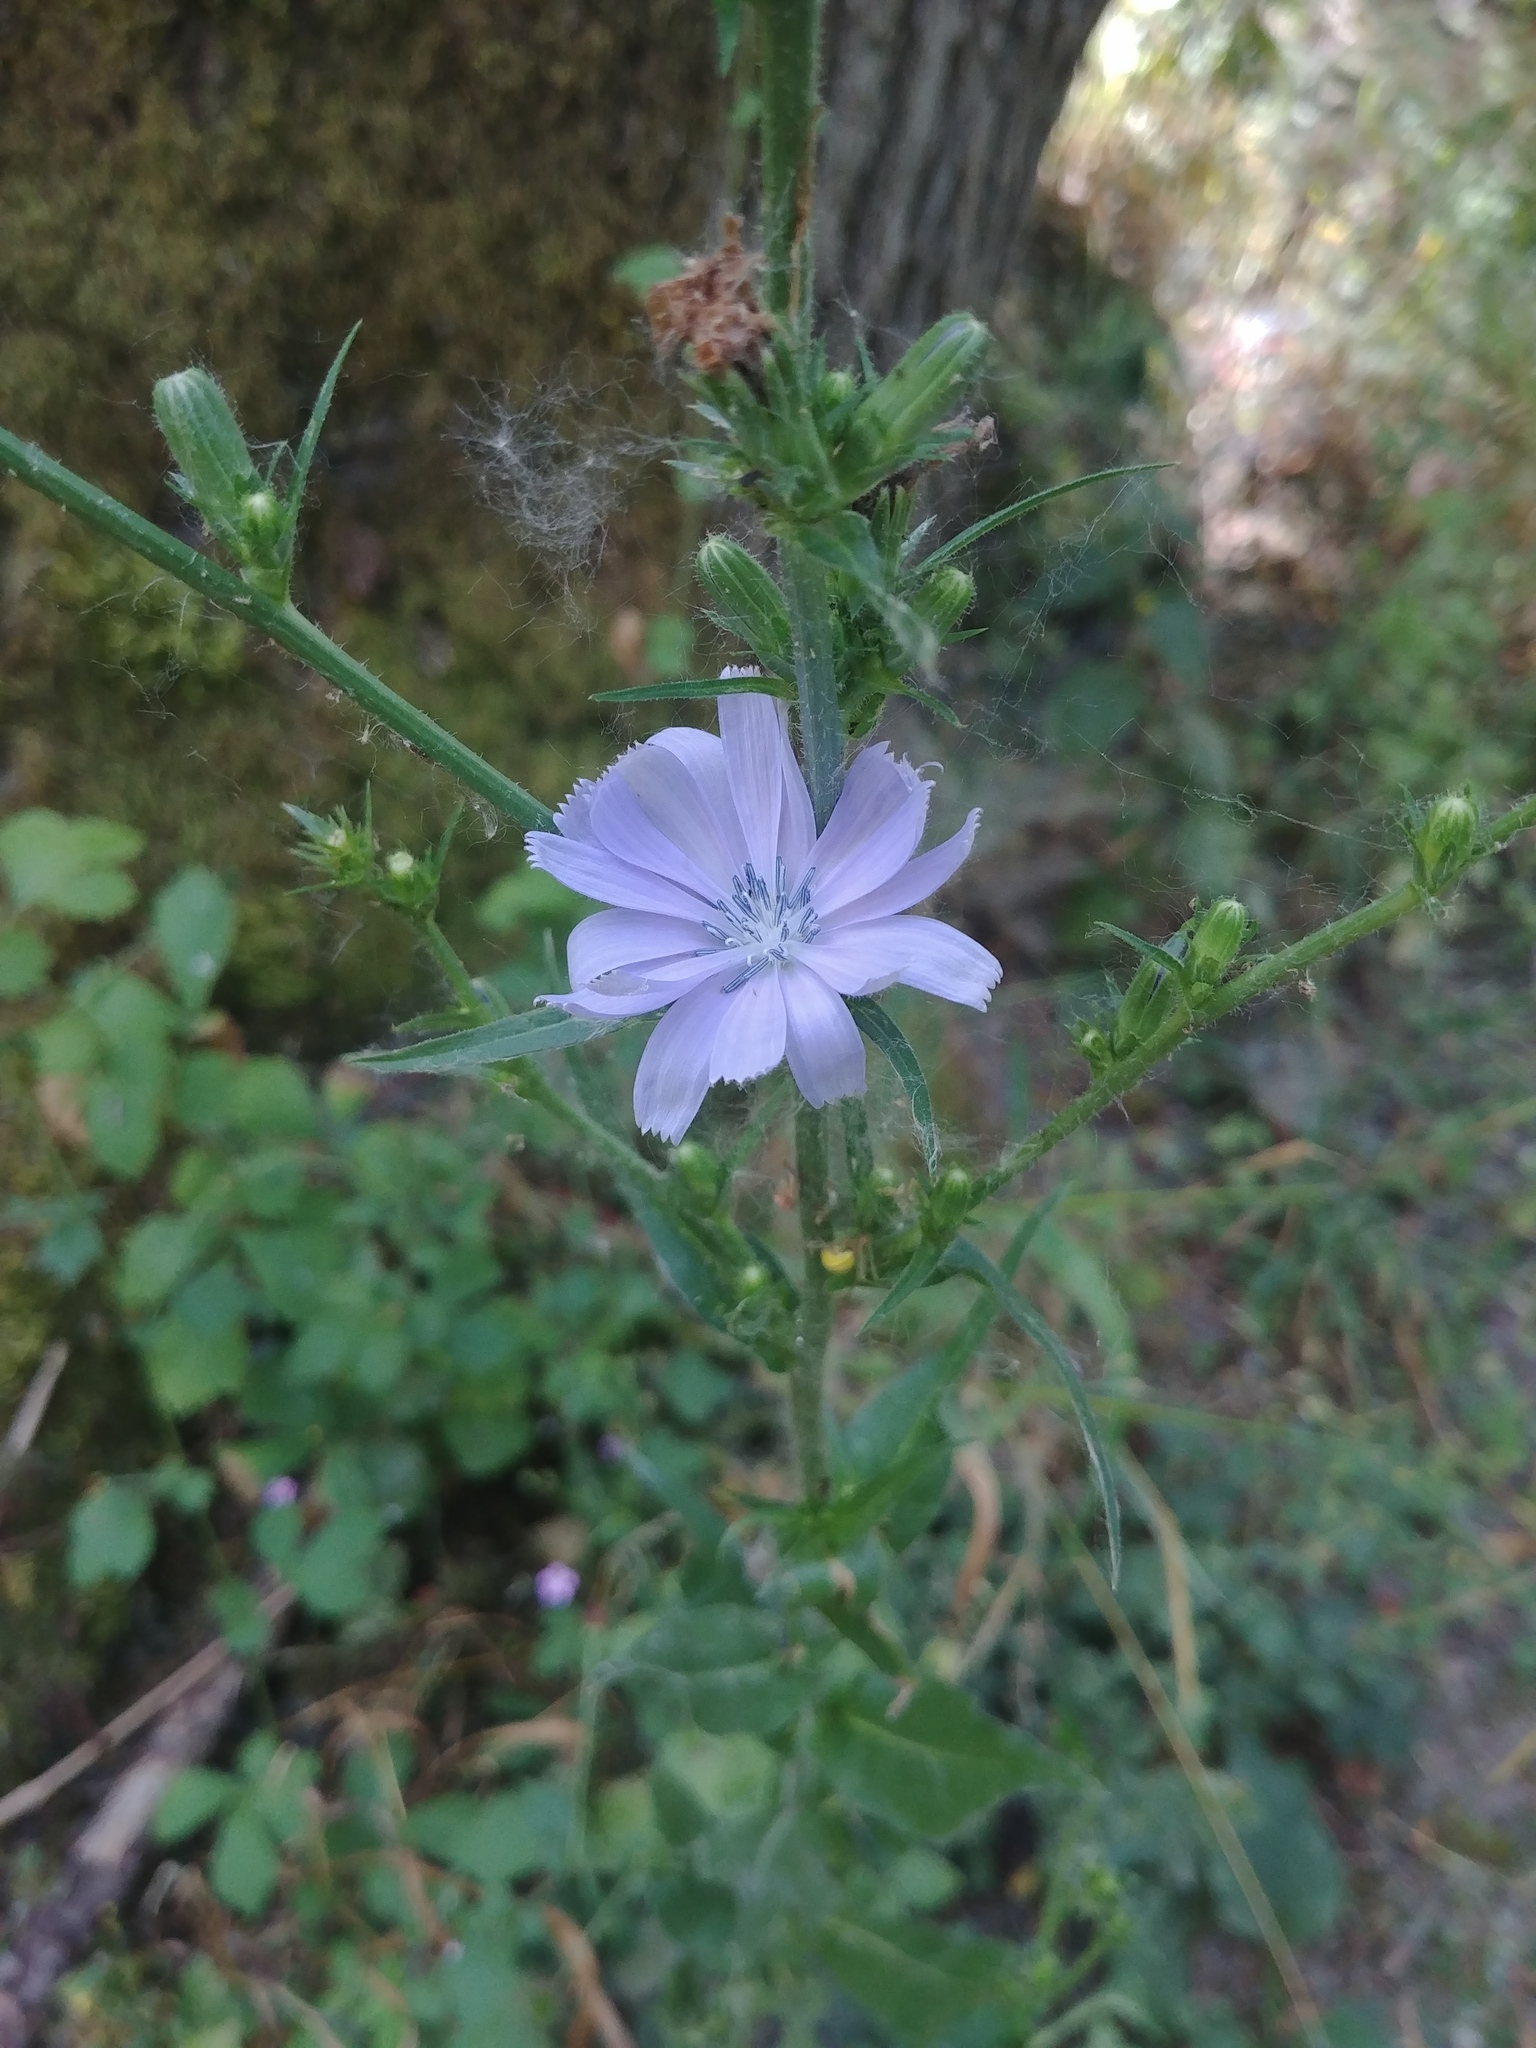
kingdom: Plantae
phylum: Tracheophyta
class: Magnoliopsida
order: Asterales
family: Asteraceae
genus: Cichorium
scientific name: Cichorium intybus
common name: Chicory
